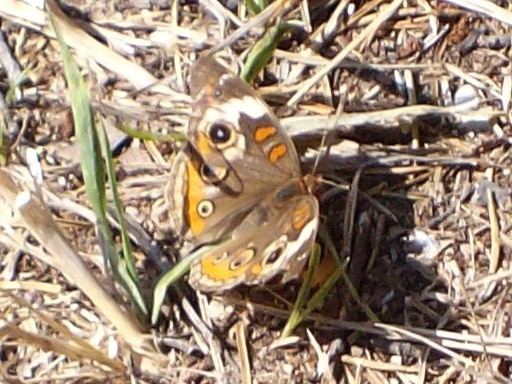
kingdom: Animalia
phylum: Arthropoda
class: Insecta
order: Lepidoptera
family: Nymphalidae
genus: Junonia
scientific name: Junonia coenia
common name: Common buckeye
